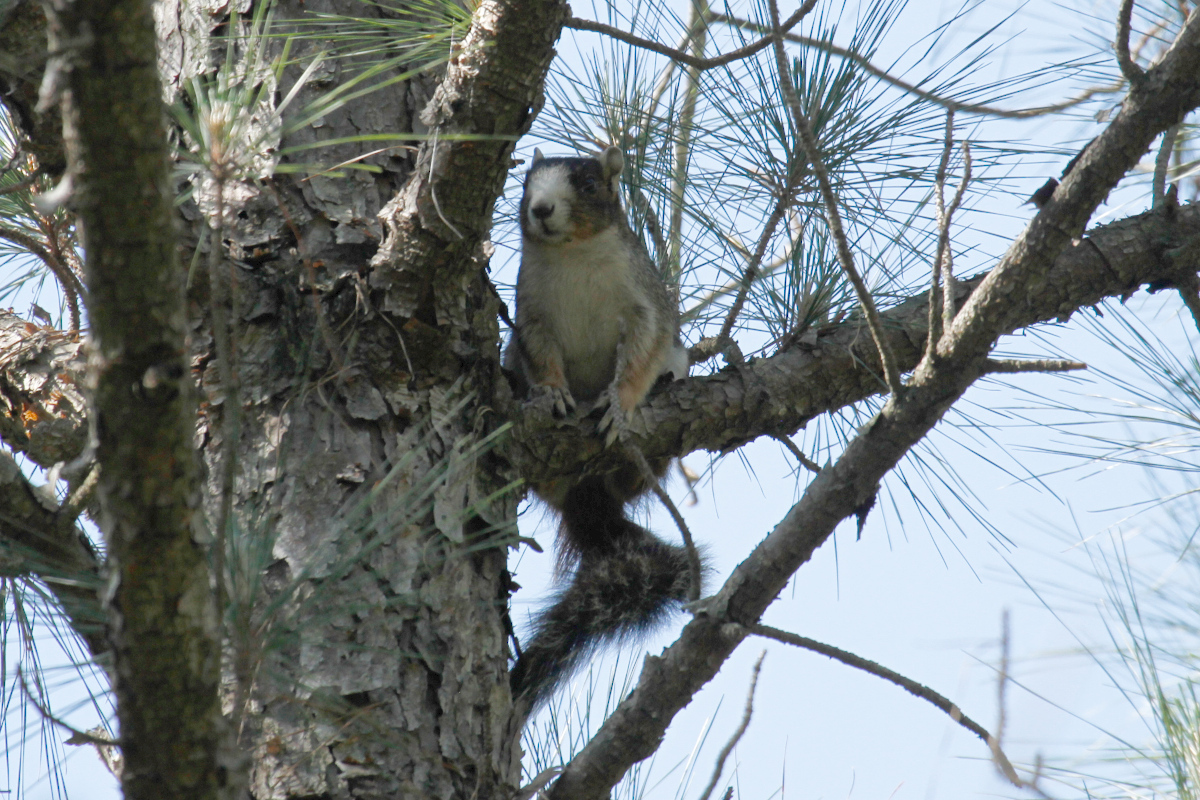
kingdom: Animalia
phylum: Chordata
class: Mammalia
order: Rodentia
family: Sciuridae
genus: Sciurus
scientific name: Sciurus niger
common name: Fox squirrel
